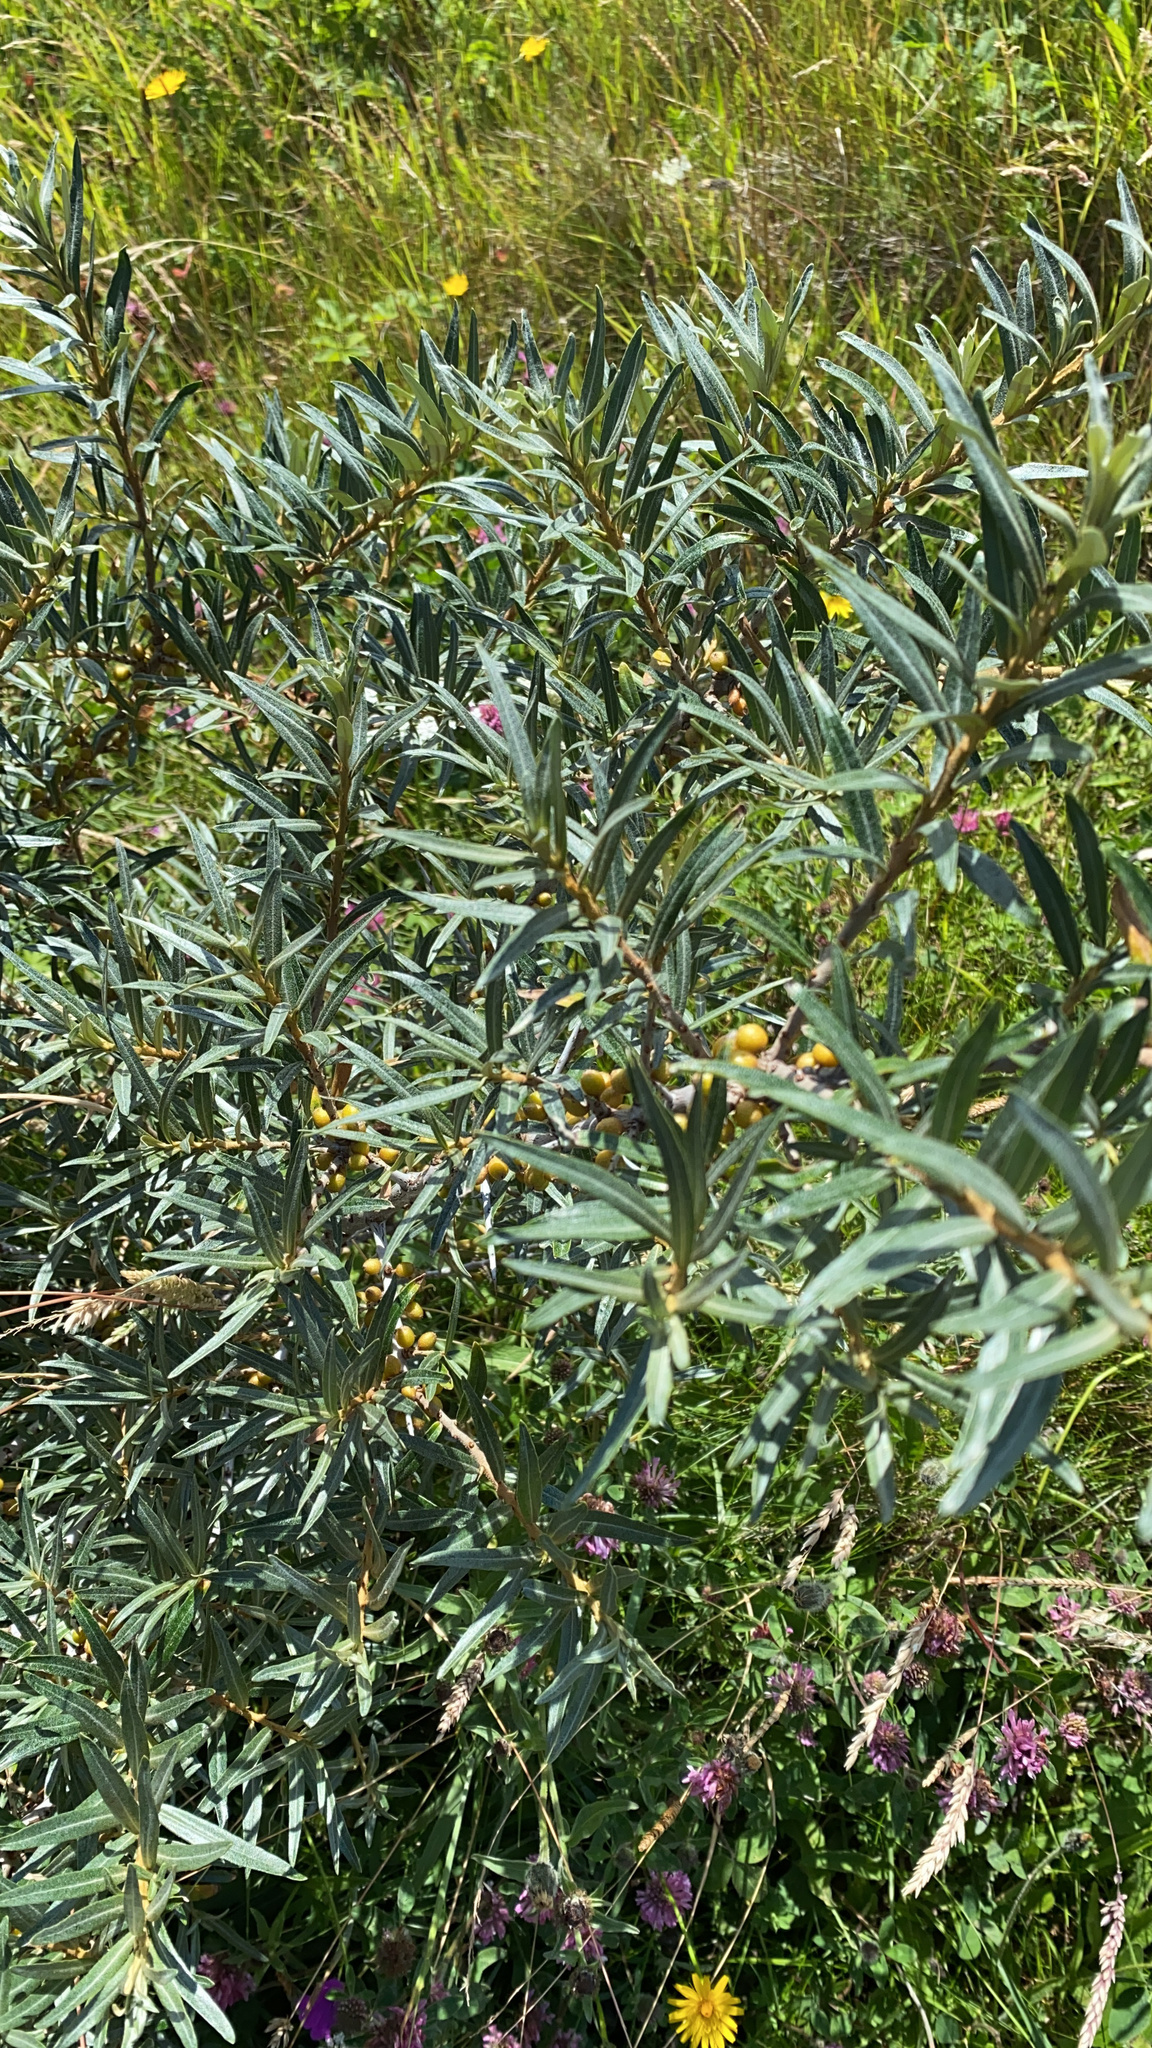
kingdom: Plantae
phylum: Tracheophyta
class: Magnoliopsida
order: Rosales
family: Elaeagnaceae
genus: Hippophae
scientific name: Hippophae rhamnoides
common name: Sea-buckthorn
